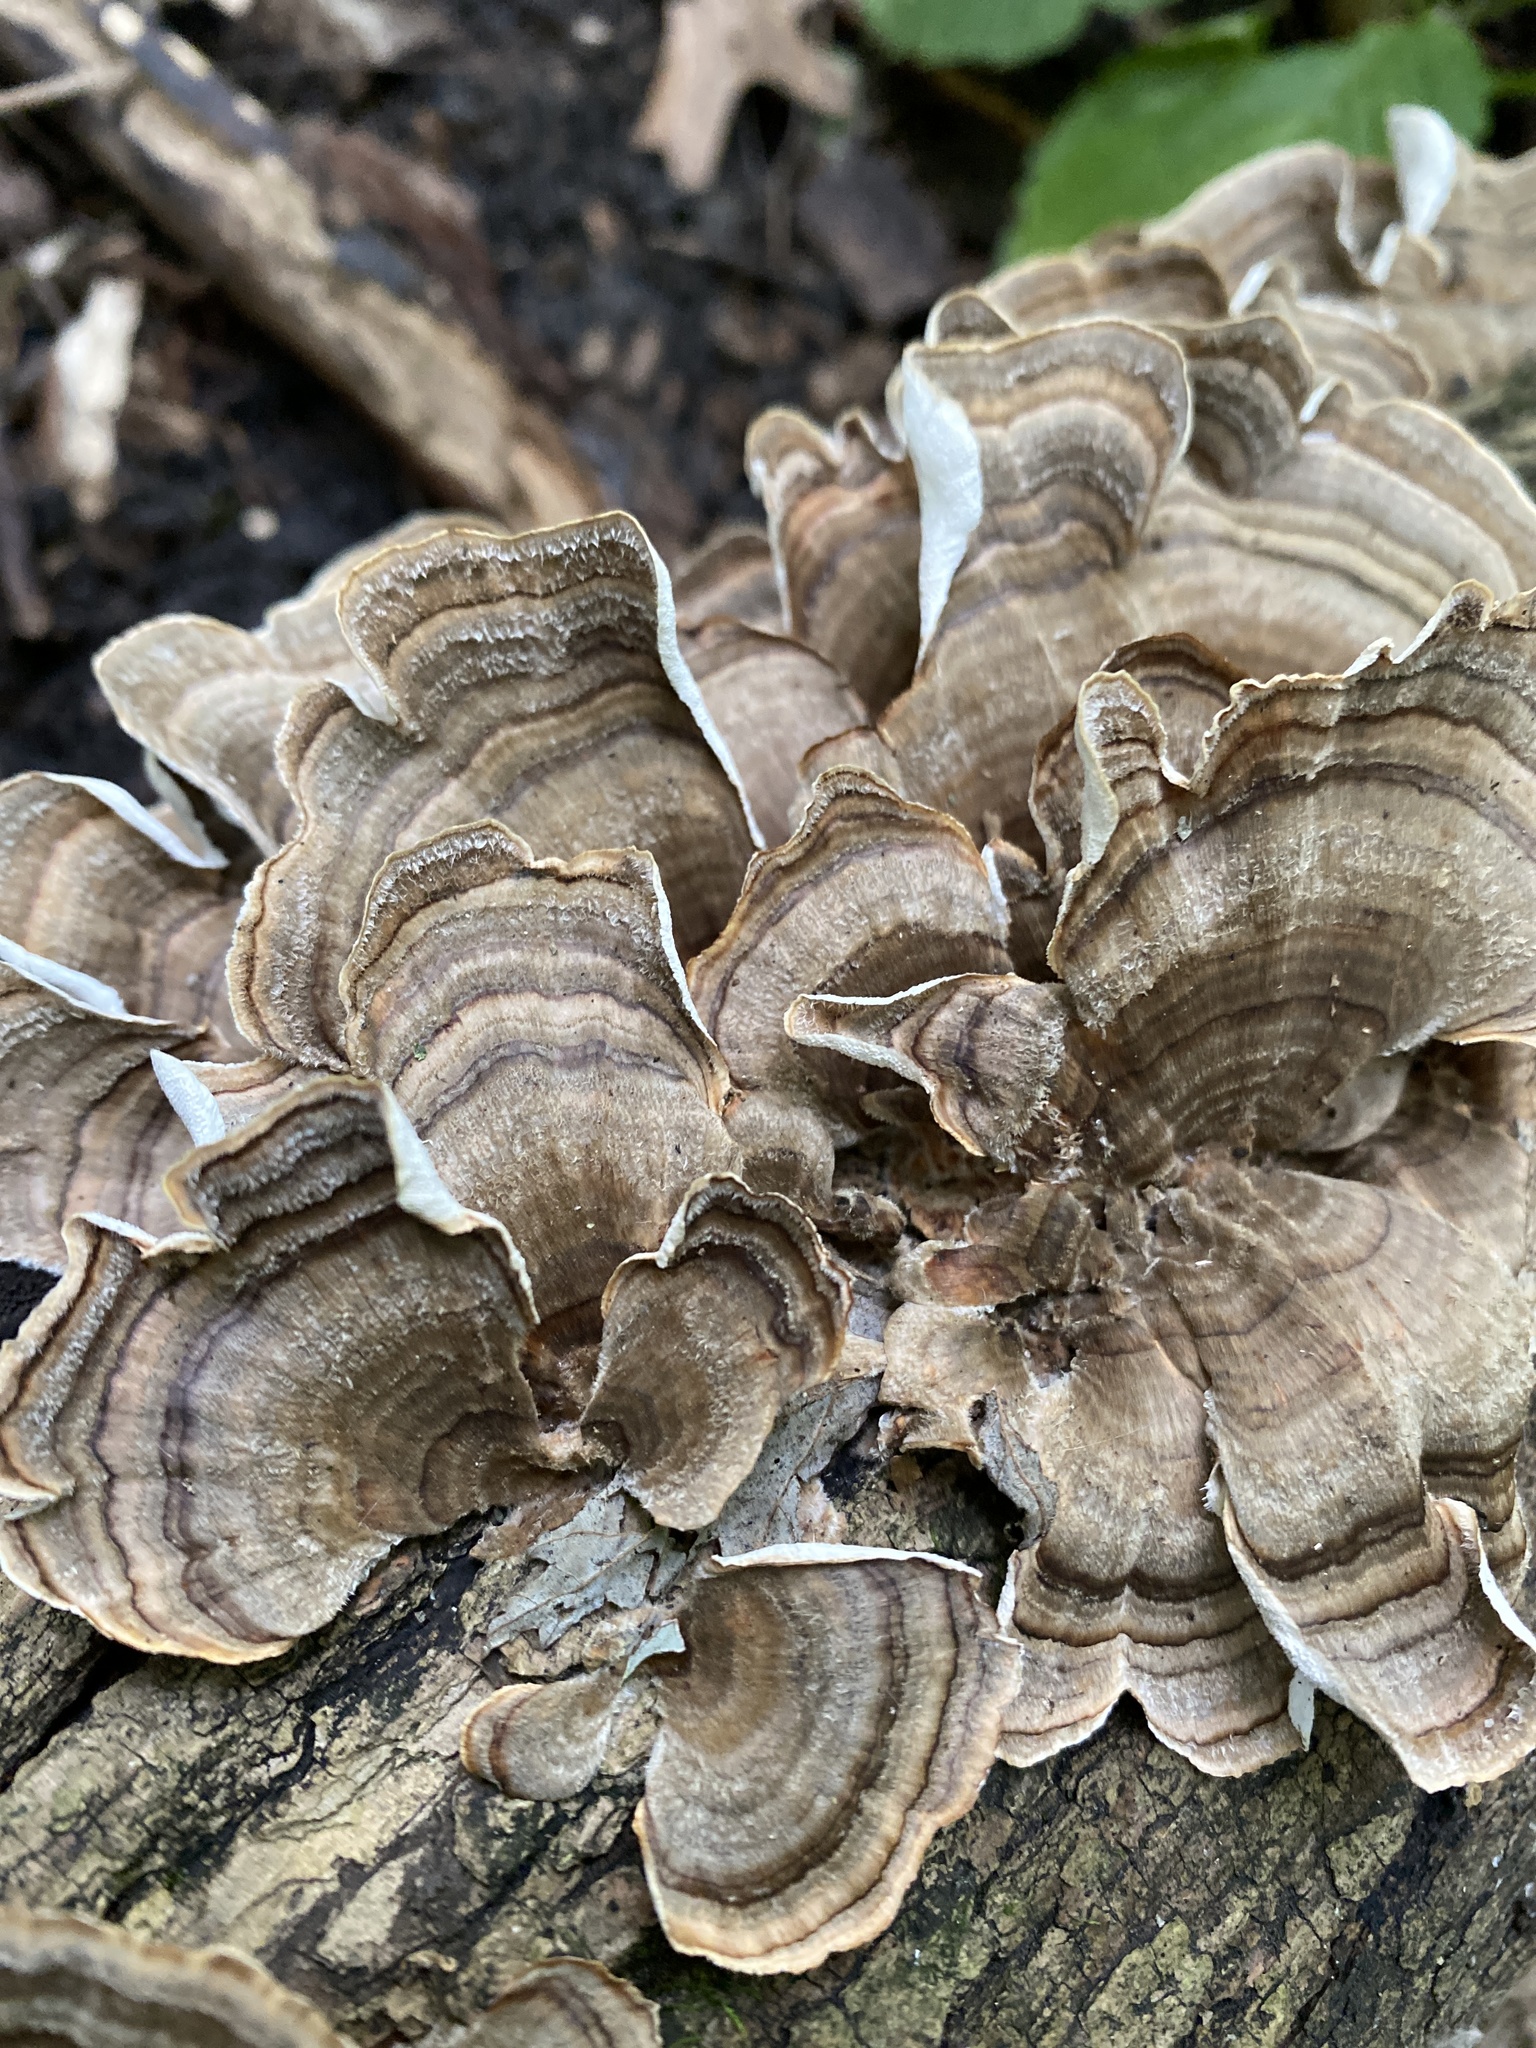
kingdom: Fungi
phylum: Basidiomycota
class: Agaricomycetes
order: Polyporales
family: Polyporaceae
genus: Trametes
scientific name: Trametes versicolor
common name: Turkeytail
